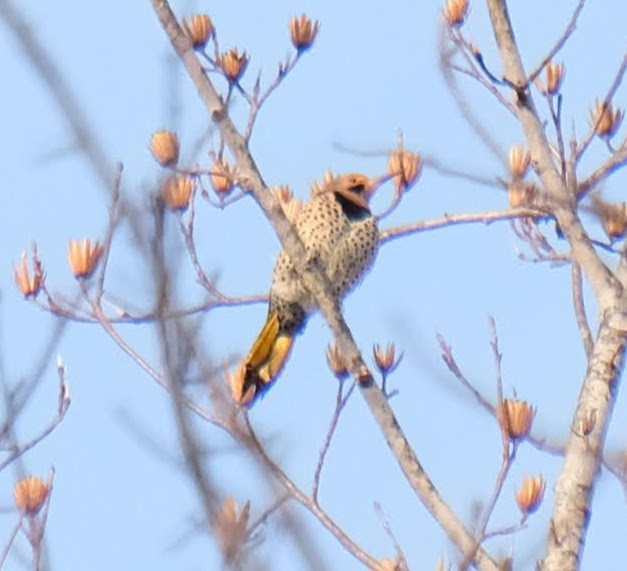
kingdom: Animalia
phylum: Chordata
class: Aves
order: Piciformes
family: Picidae
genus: Colaptes
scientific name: Colaptes auratus
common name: Northern flicker
